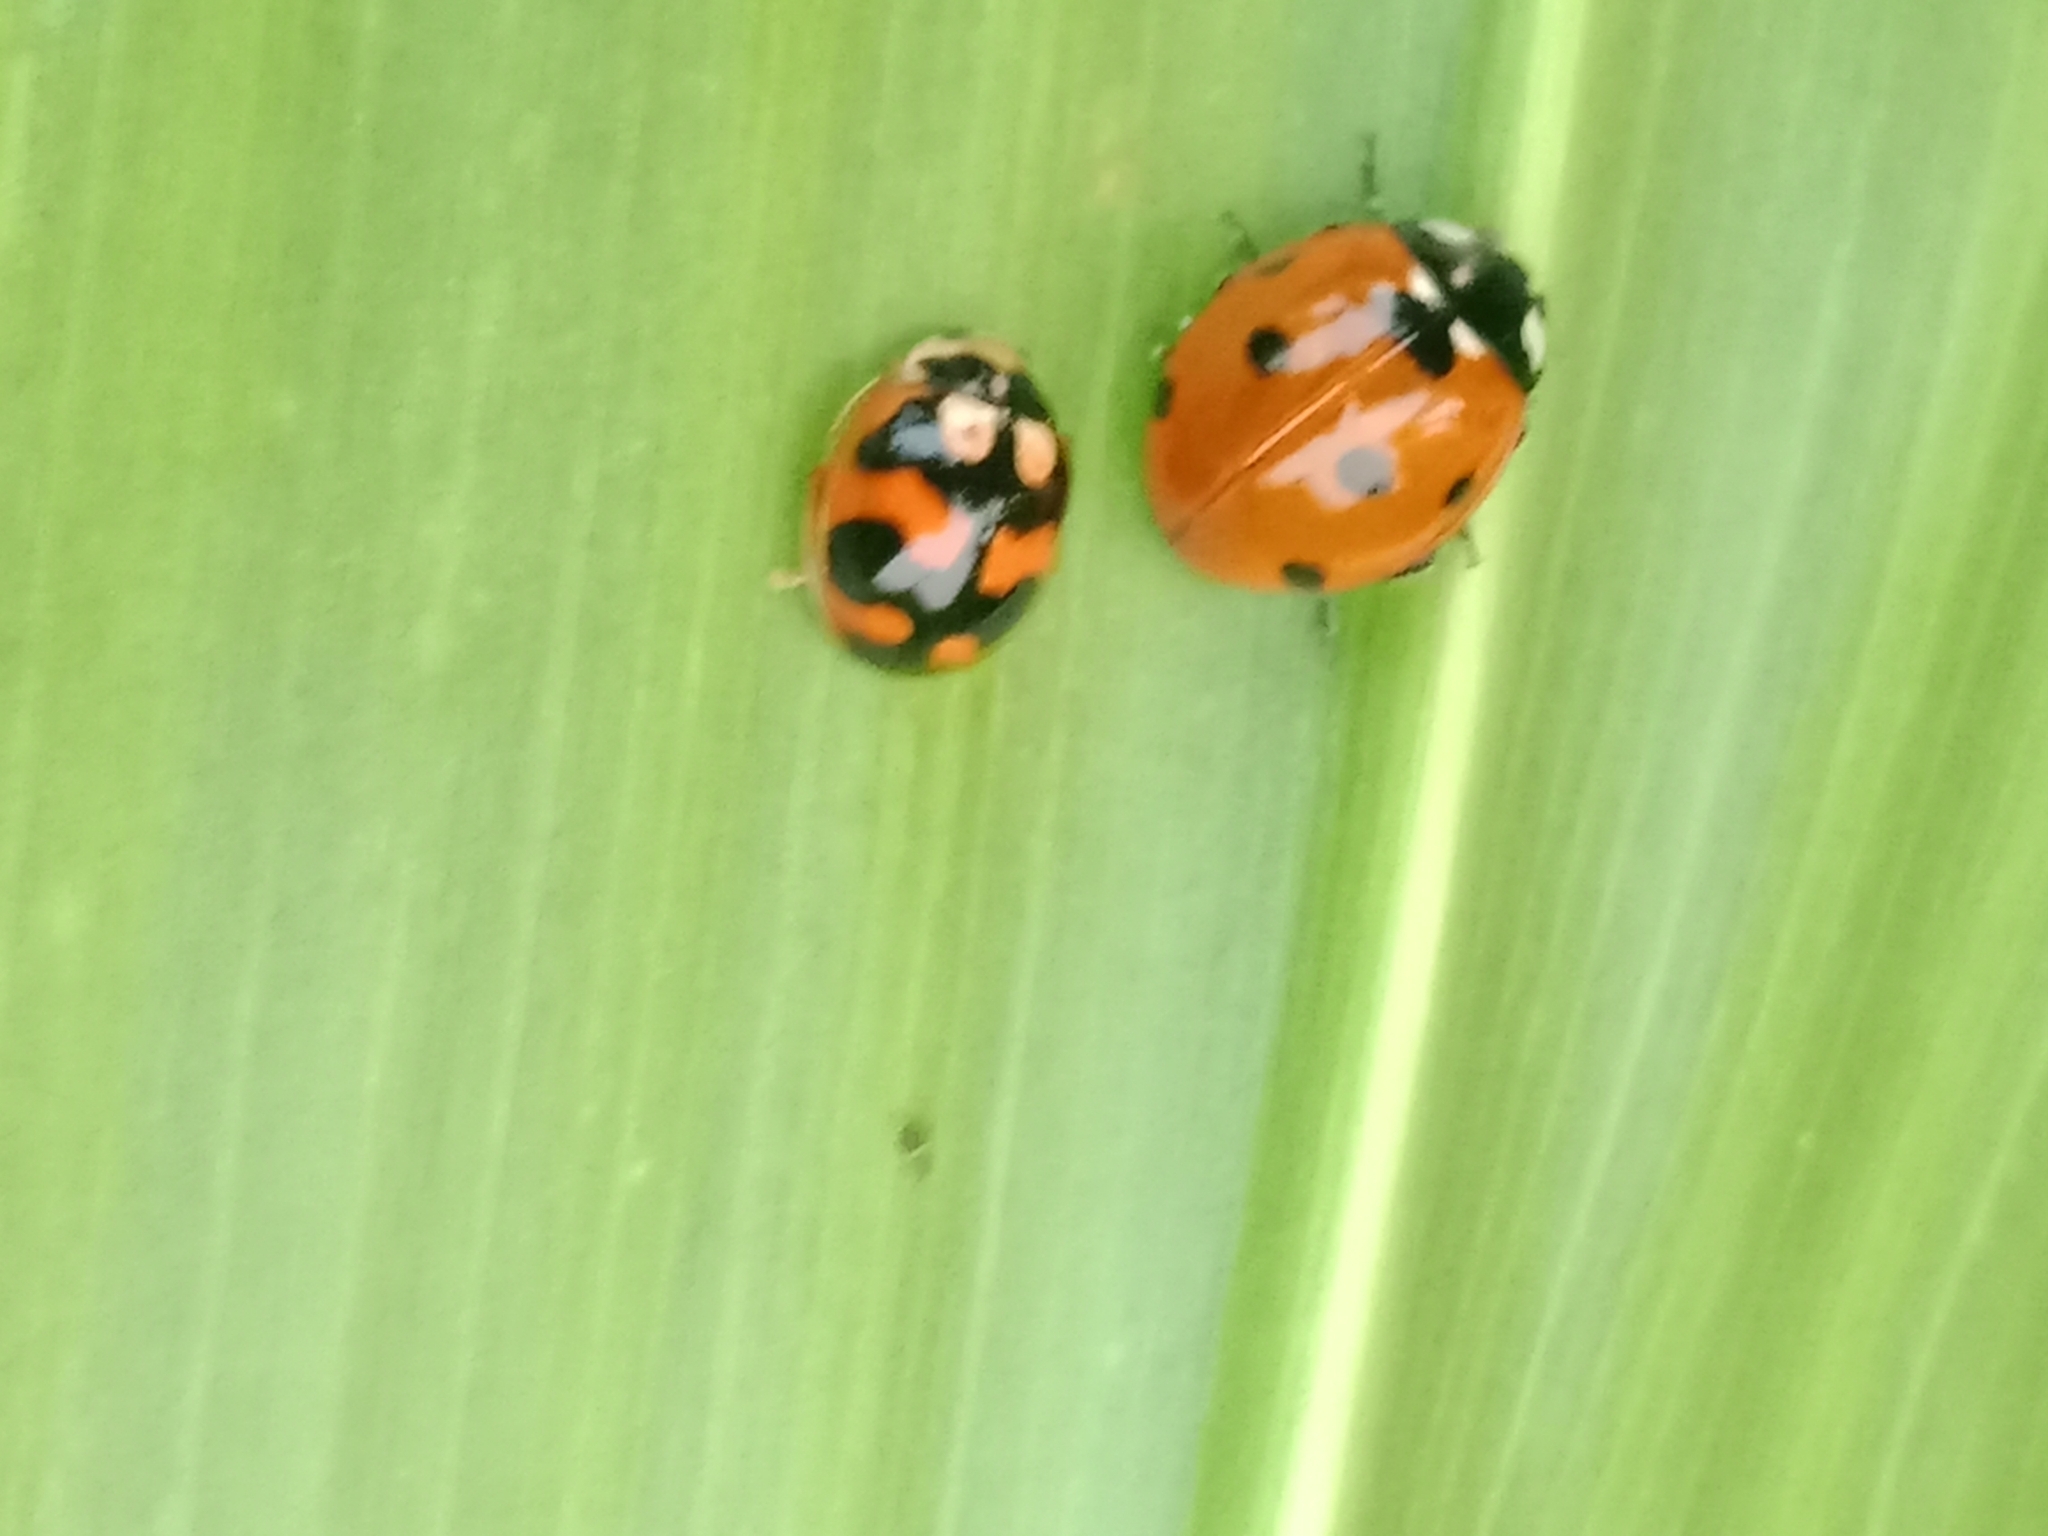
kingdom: Animalia
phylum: Arthropoda
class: Insecta
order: Coleoptera
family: Coccinellidae
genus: Propylea
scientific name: Propylea
